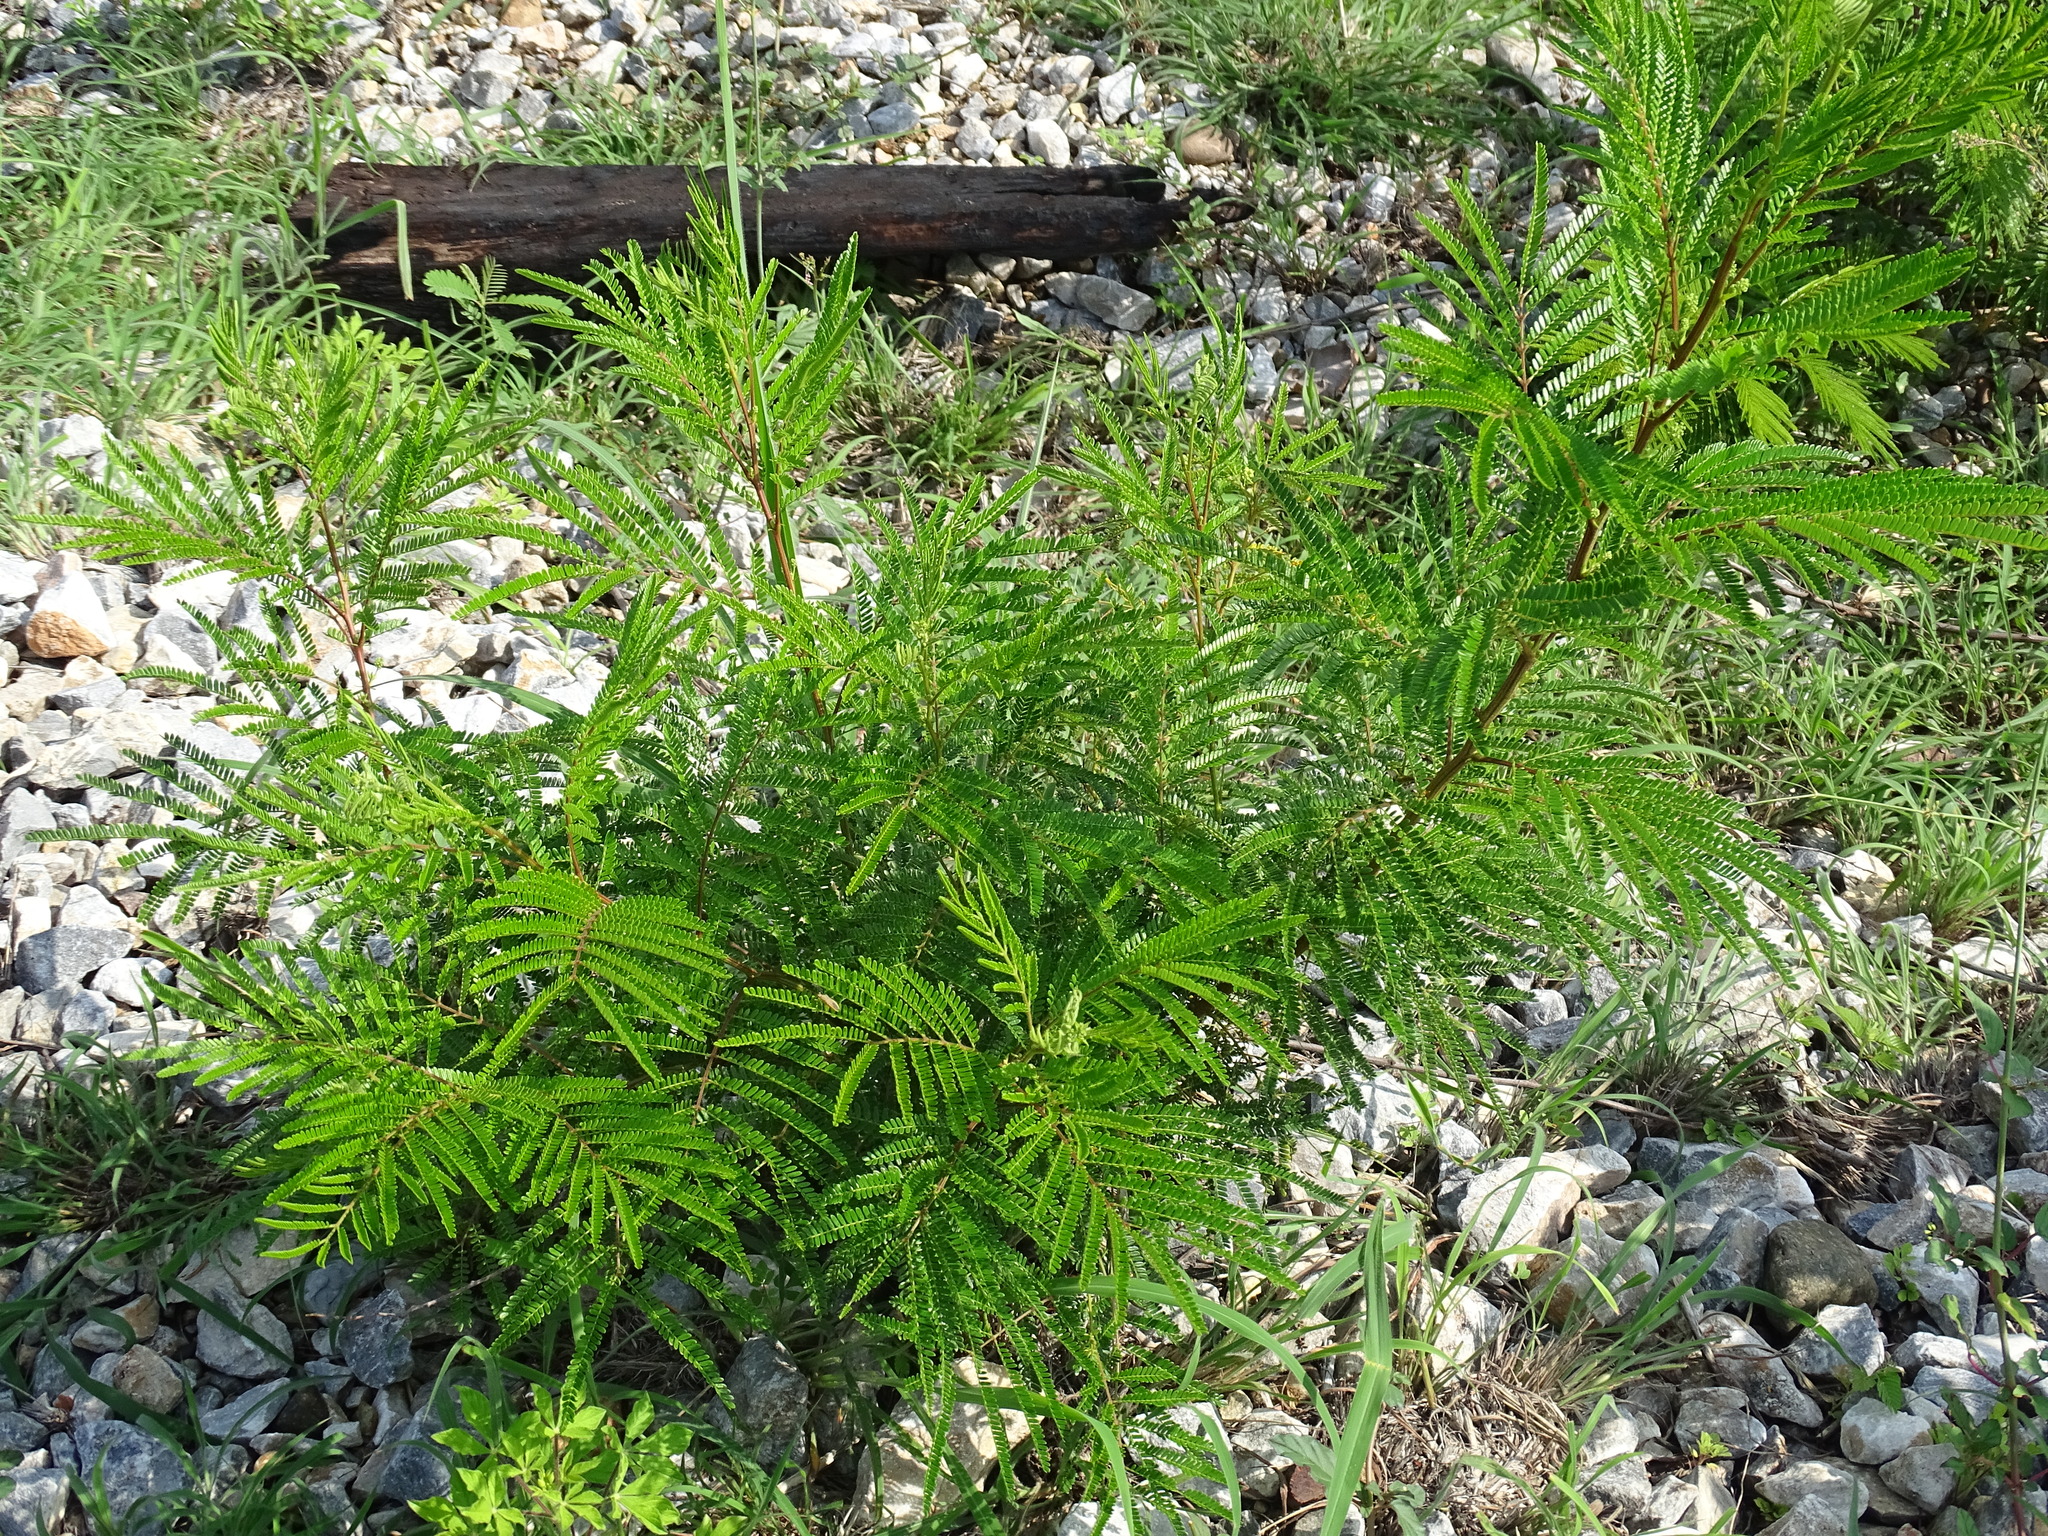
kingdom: Plantae
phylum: Tracheophyta
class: Magnoliopsida
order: Fabales
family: Fabaceae
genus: Acaciella
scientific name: Acaciella villosa
